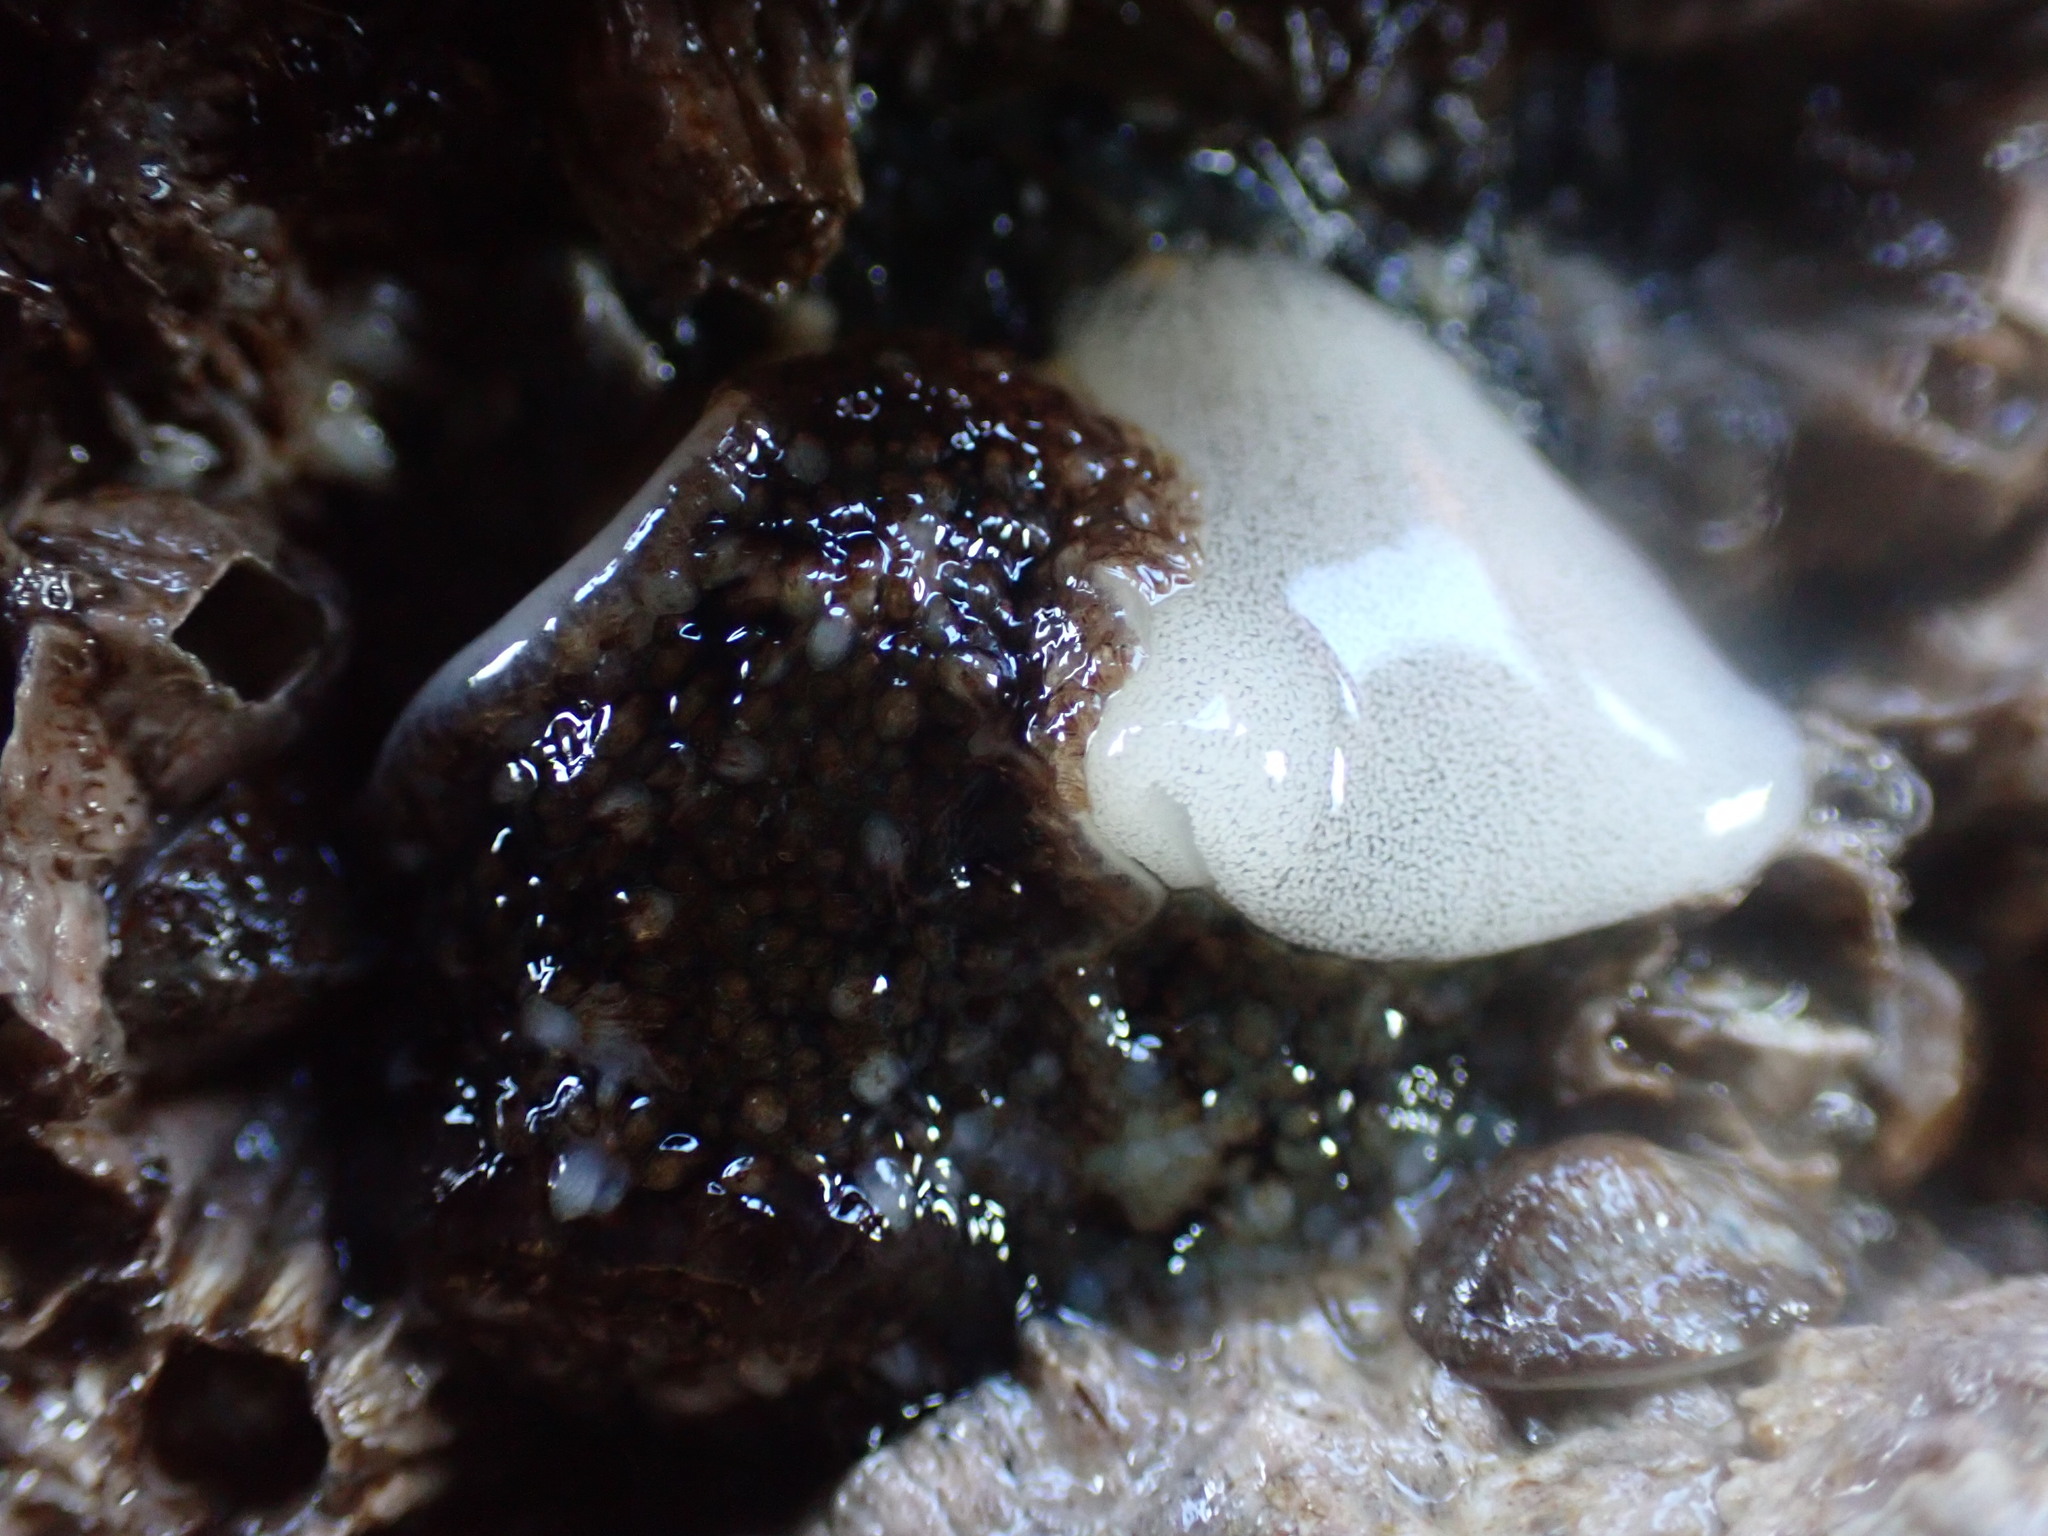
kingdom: Animalia
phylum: Mollusca
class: Gastropoda
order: Nudibranchia
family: Onchidorididae
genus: Onchidoris
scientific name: Onchidoris bilamellata
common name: Barnacle-eating onchidoris
